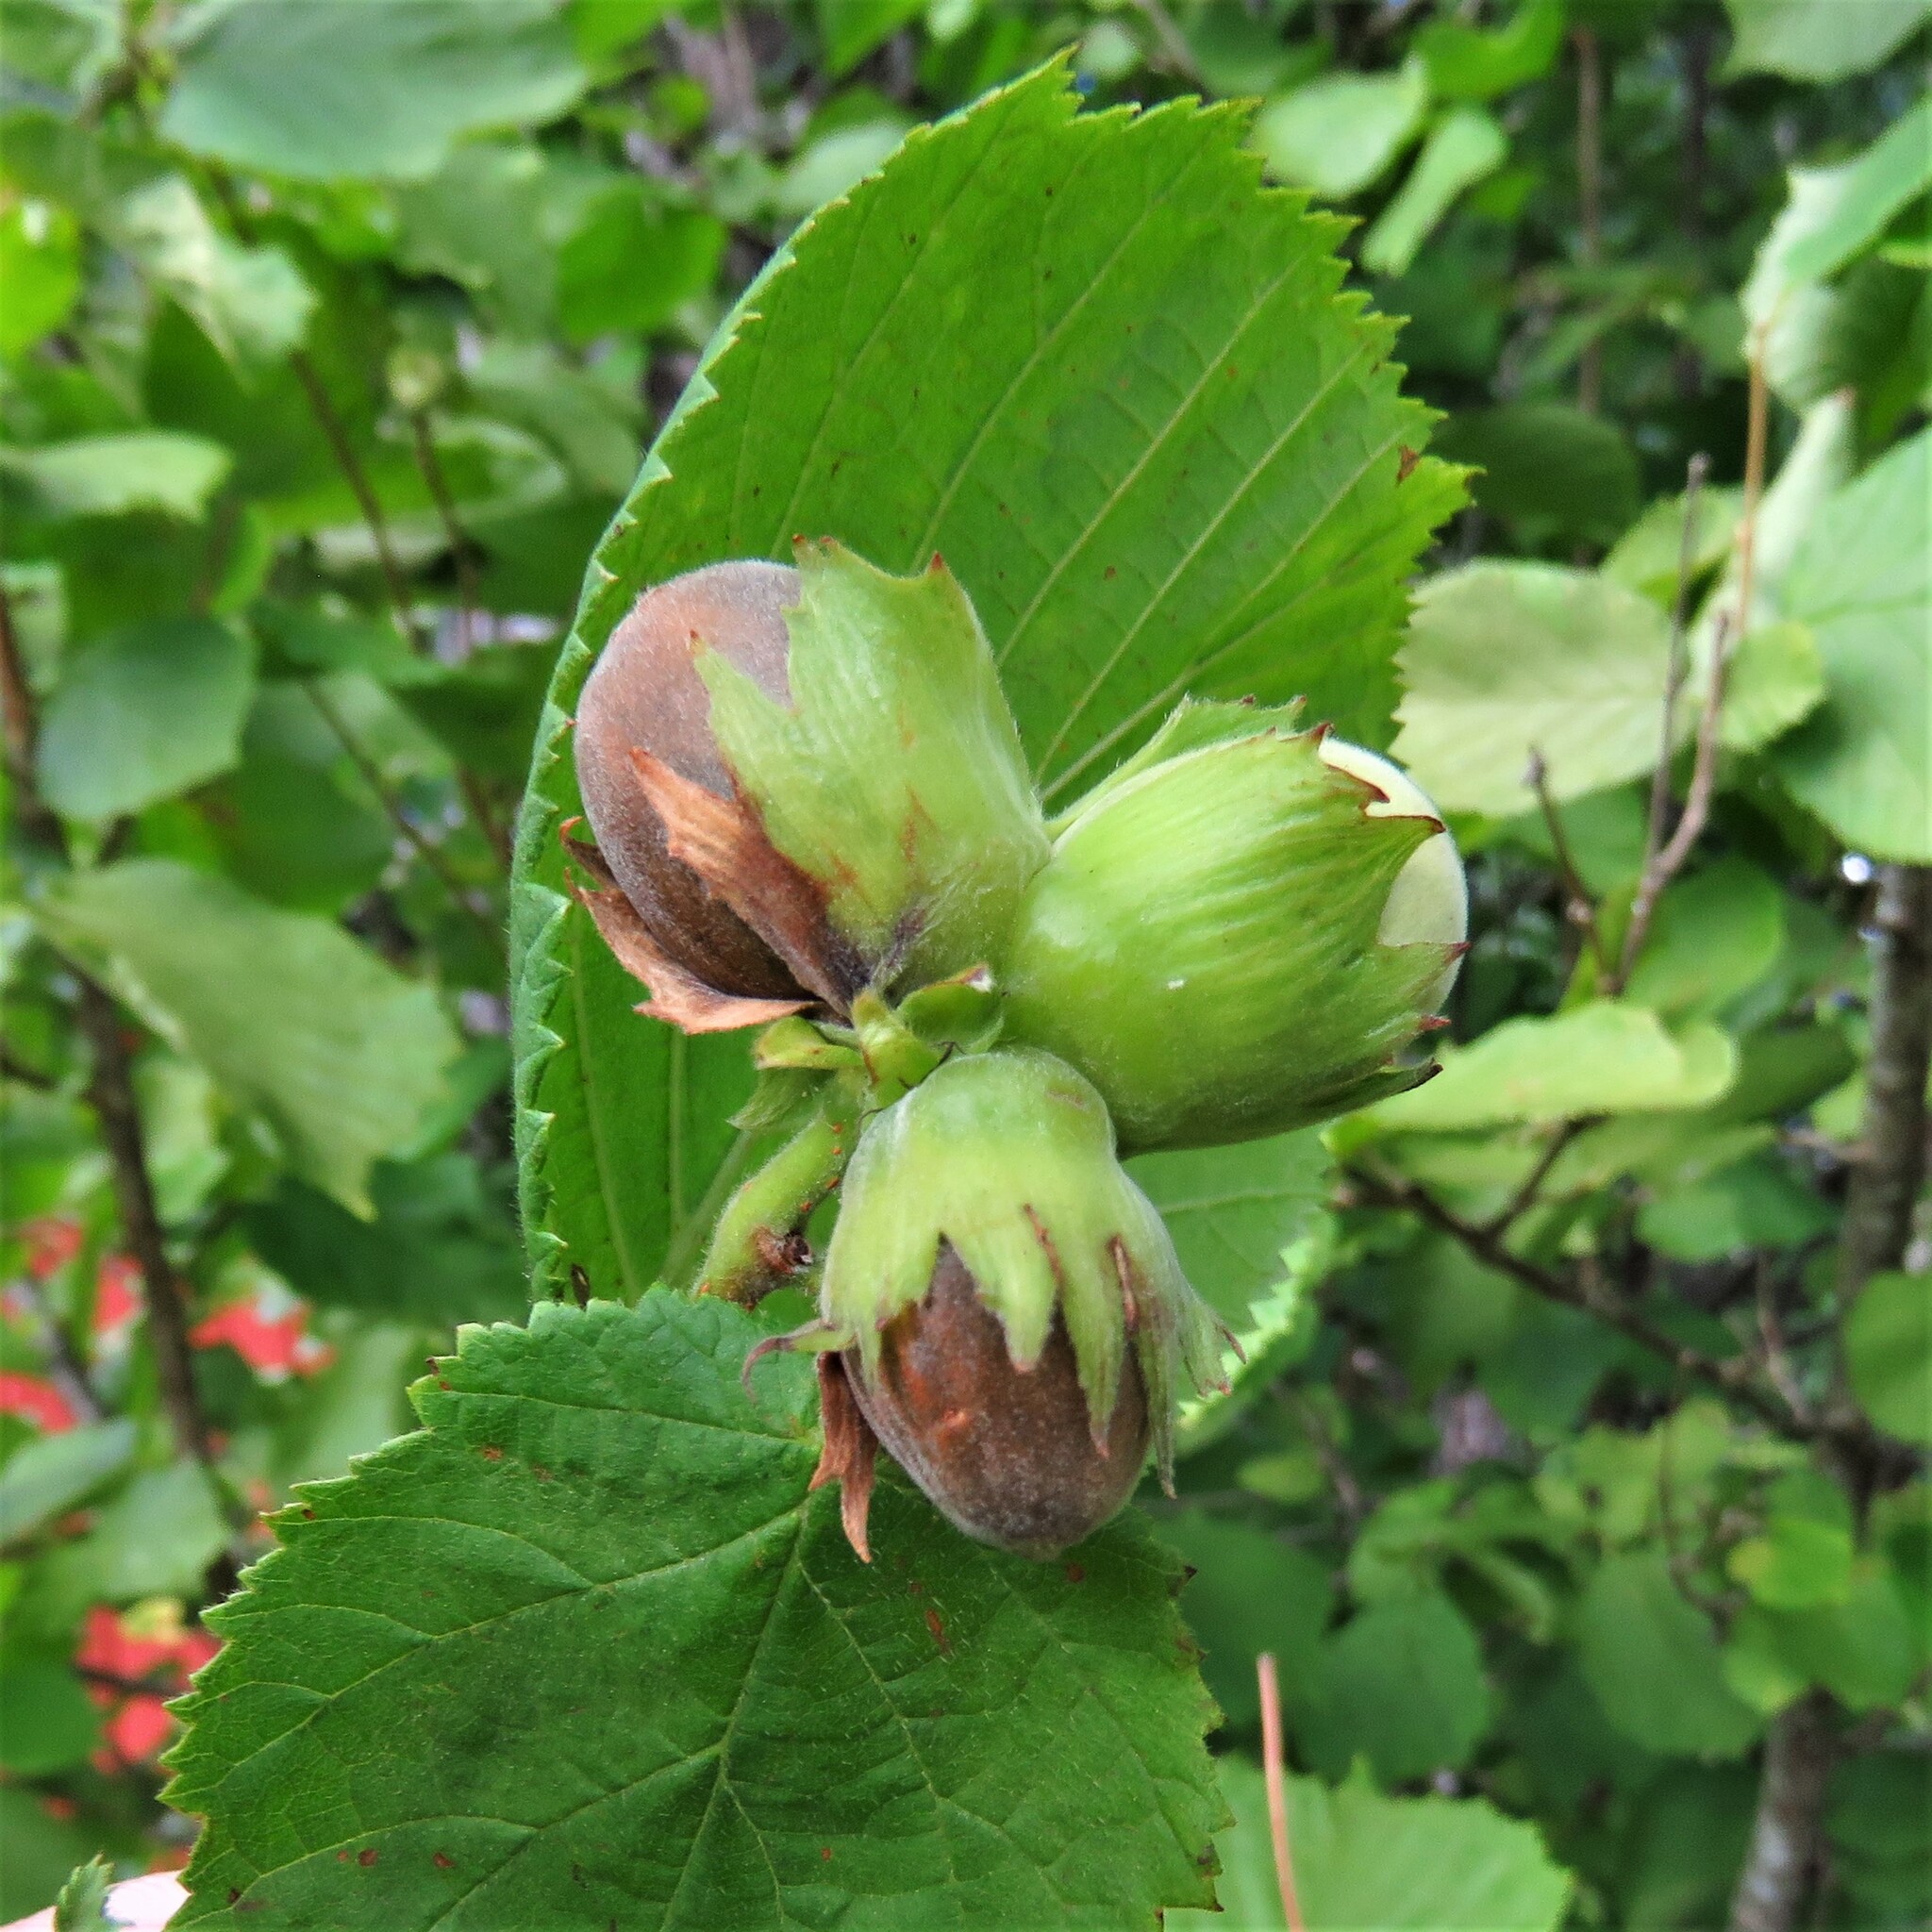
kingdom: Plantae
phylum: Tracheophyta
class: Magnoliopsida
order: Fagales
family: Betulaceae
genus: Corylus
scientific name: Corylus avellana
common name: European hazel
